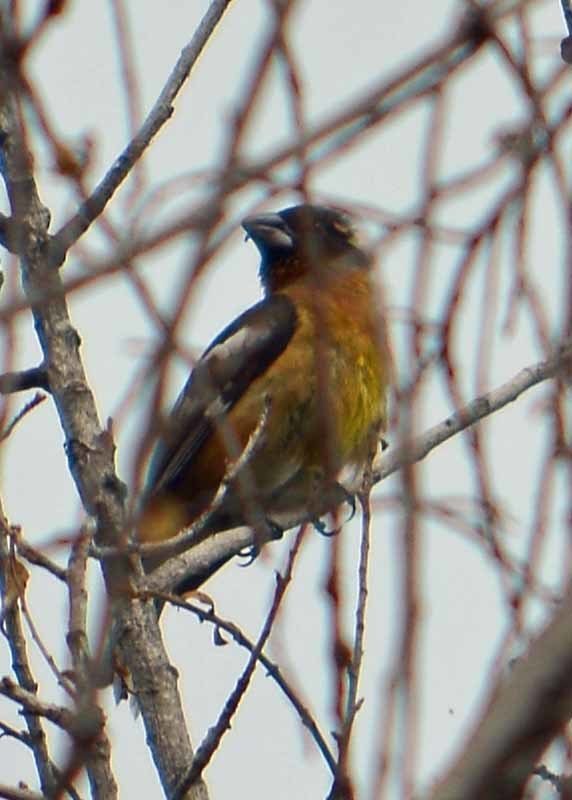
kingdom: Animalia
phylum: Chordata
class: Aves
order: Passeriformes
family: Cardinalidae
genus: Pheucticus
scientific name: Pheucticus melanocephalus
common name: Black-headed grosbeak
